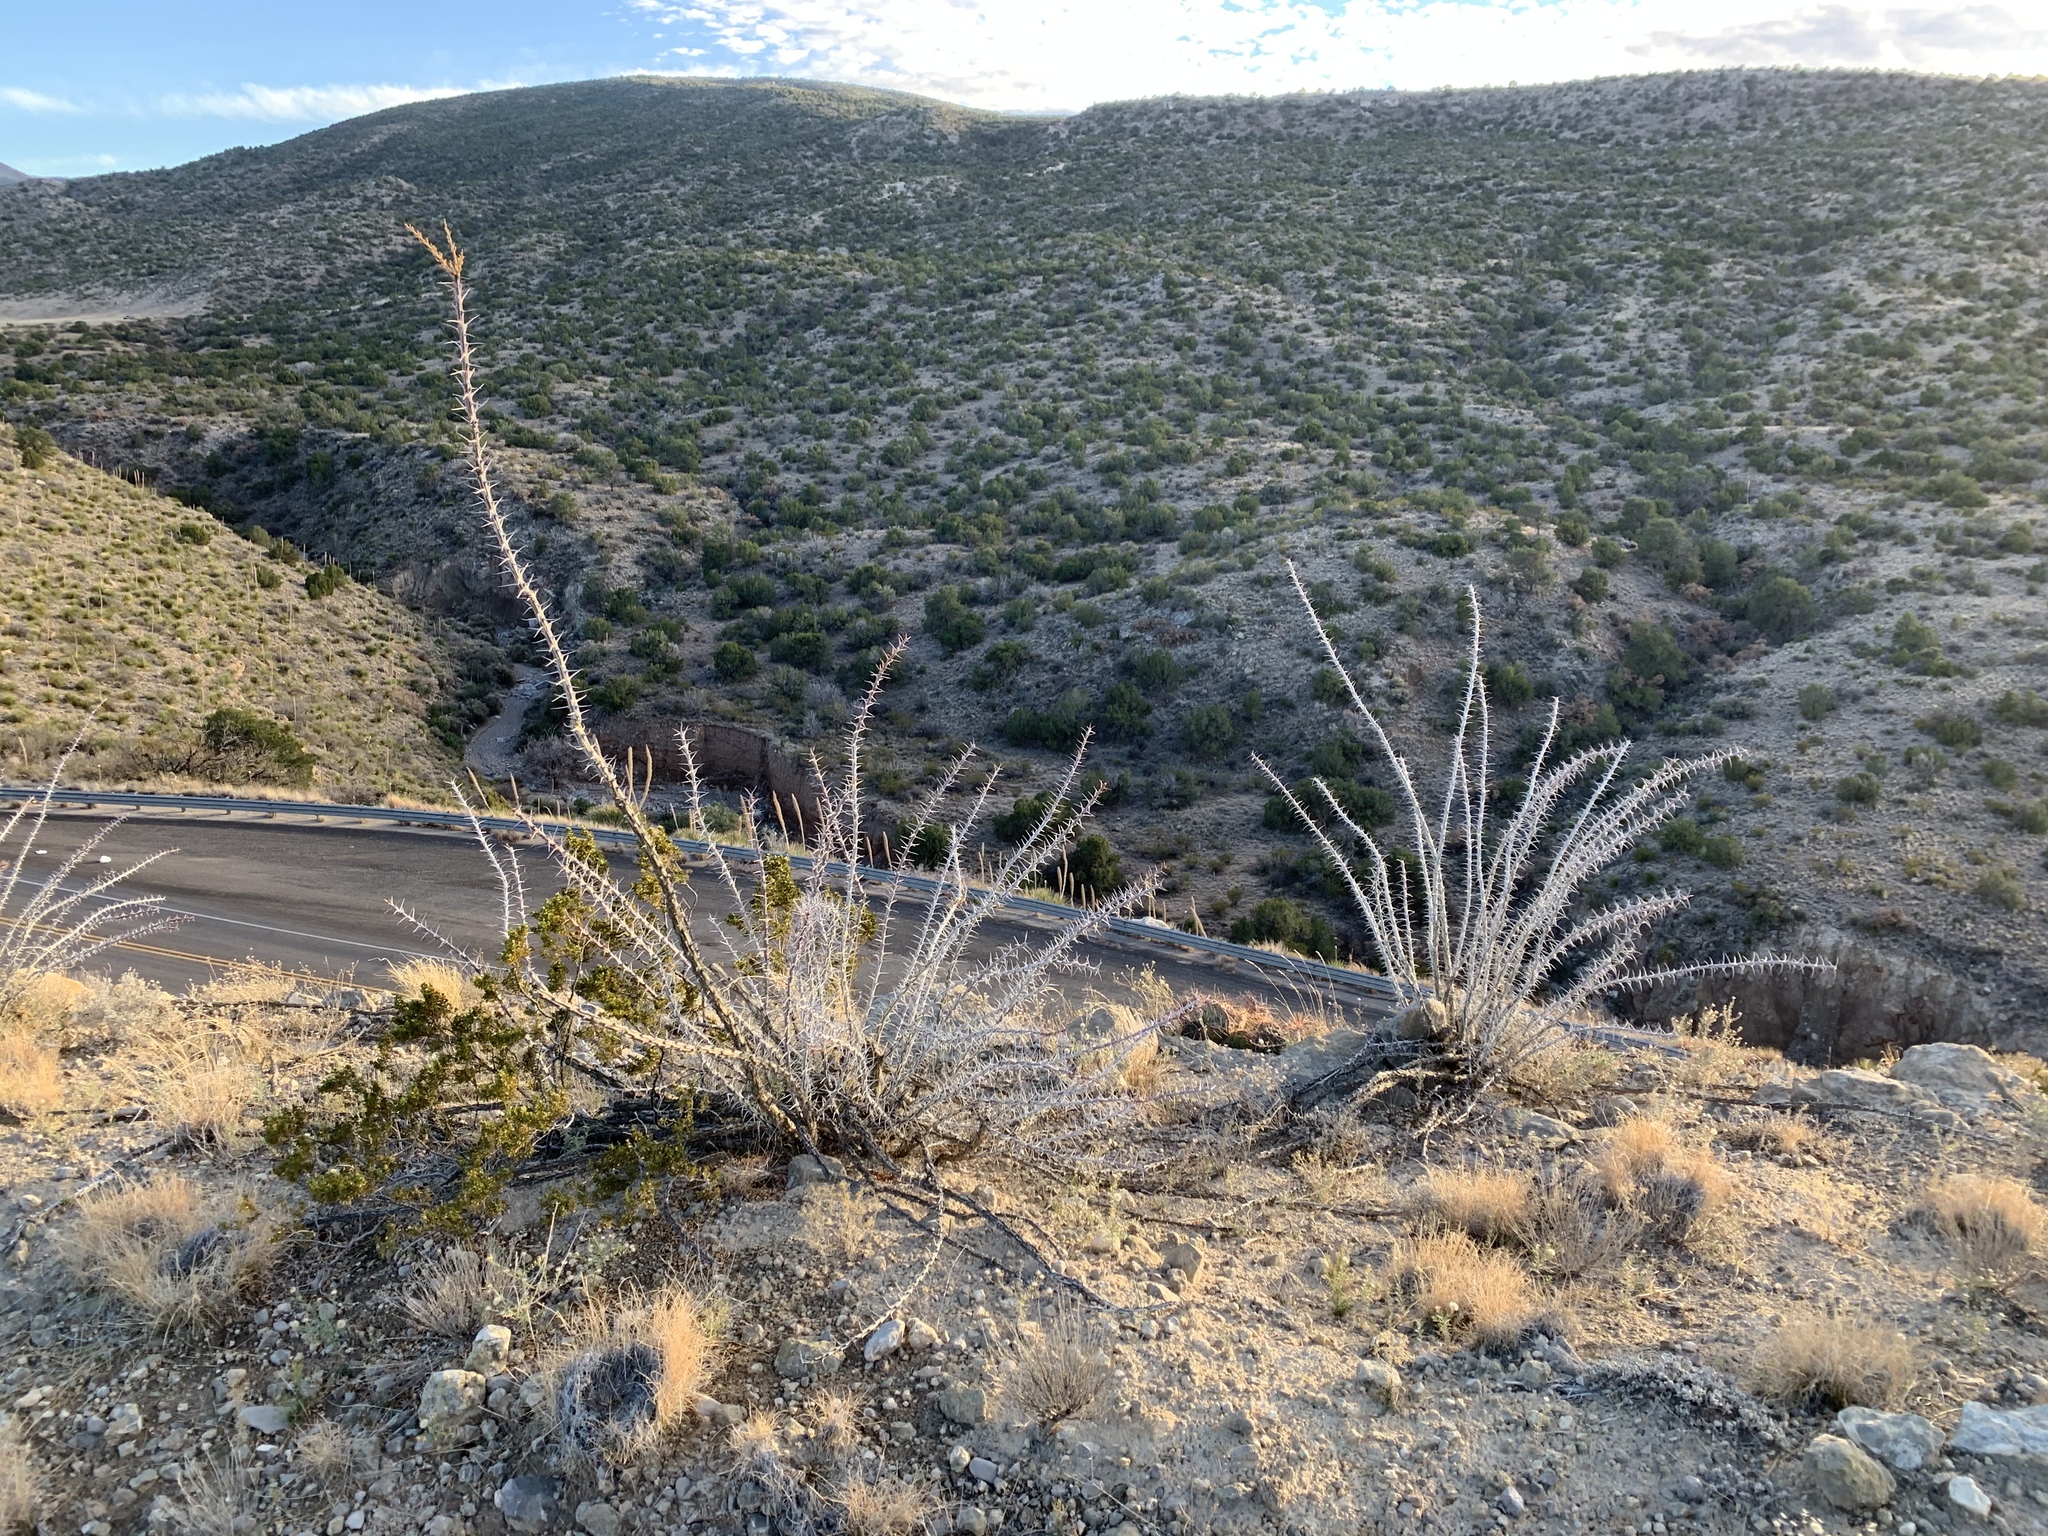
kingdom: Plantae
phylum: Tracheophyta
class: Magnoliopsida
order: Ericales
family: Fouquieriaceae
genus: Fouquieria
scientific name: Fouquieria splendens
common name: Vine-cactus
